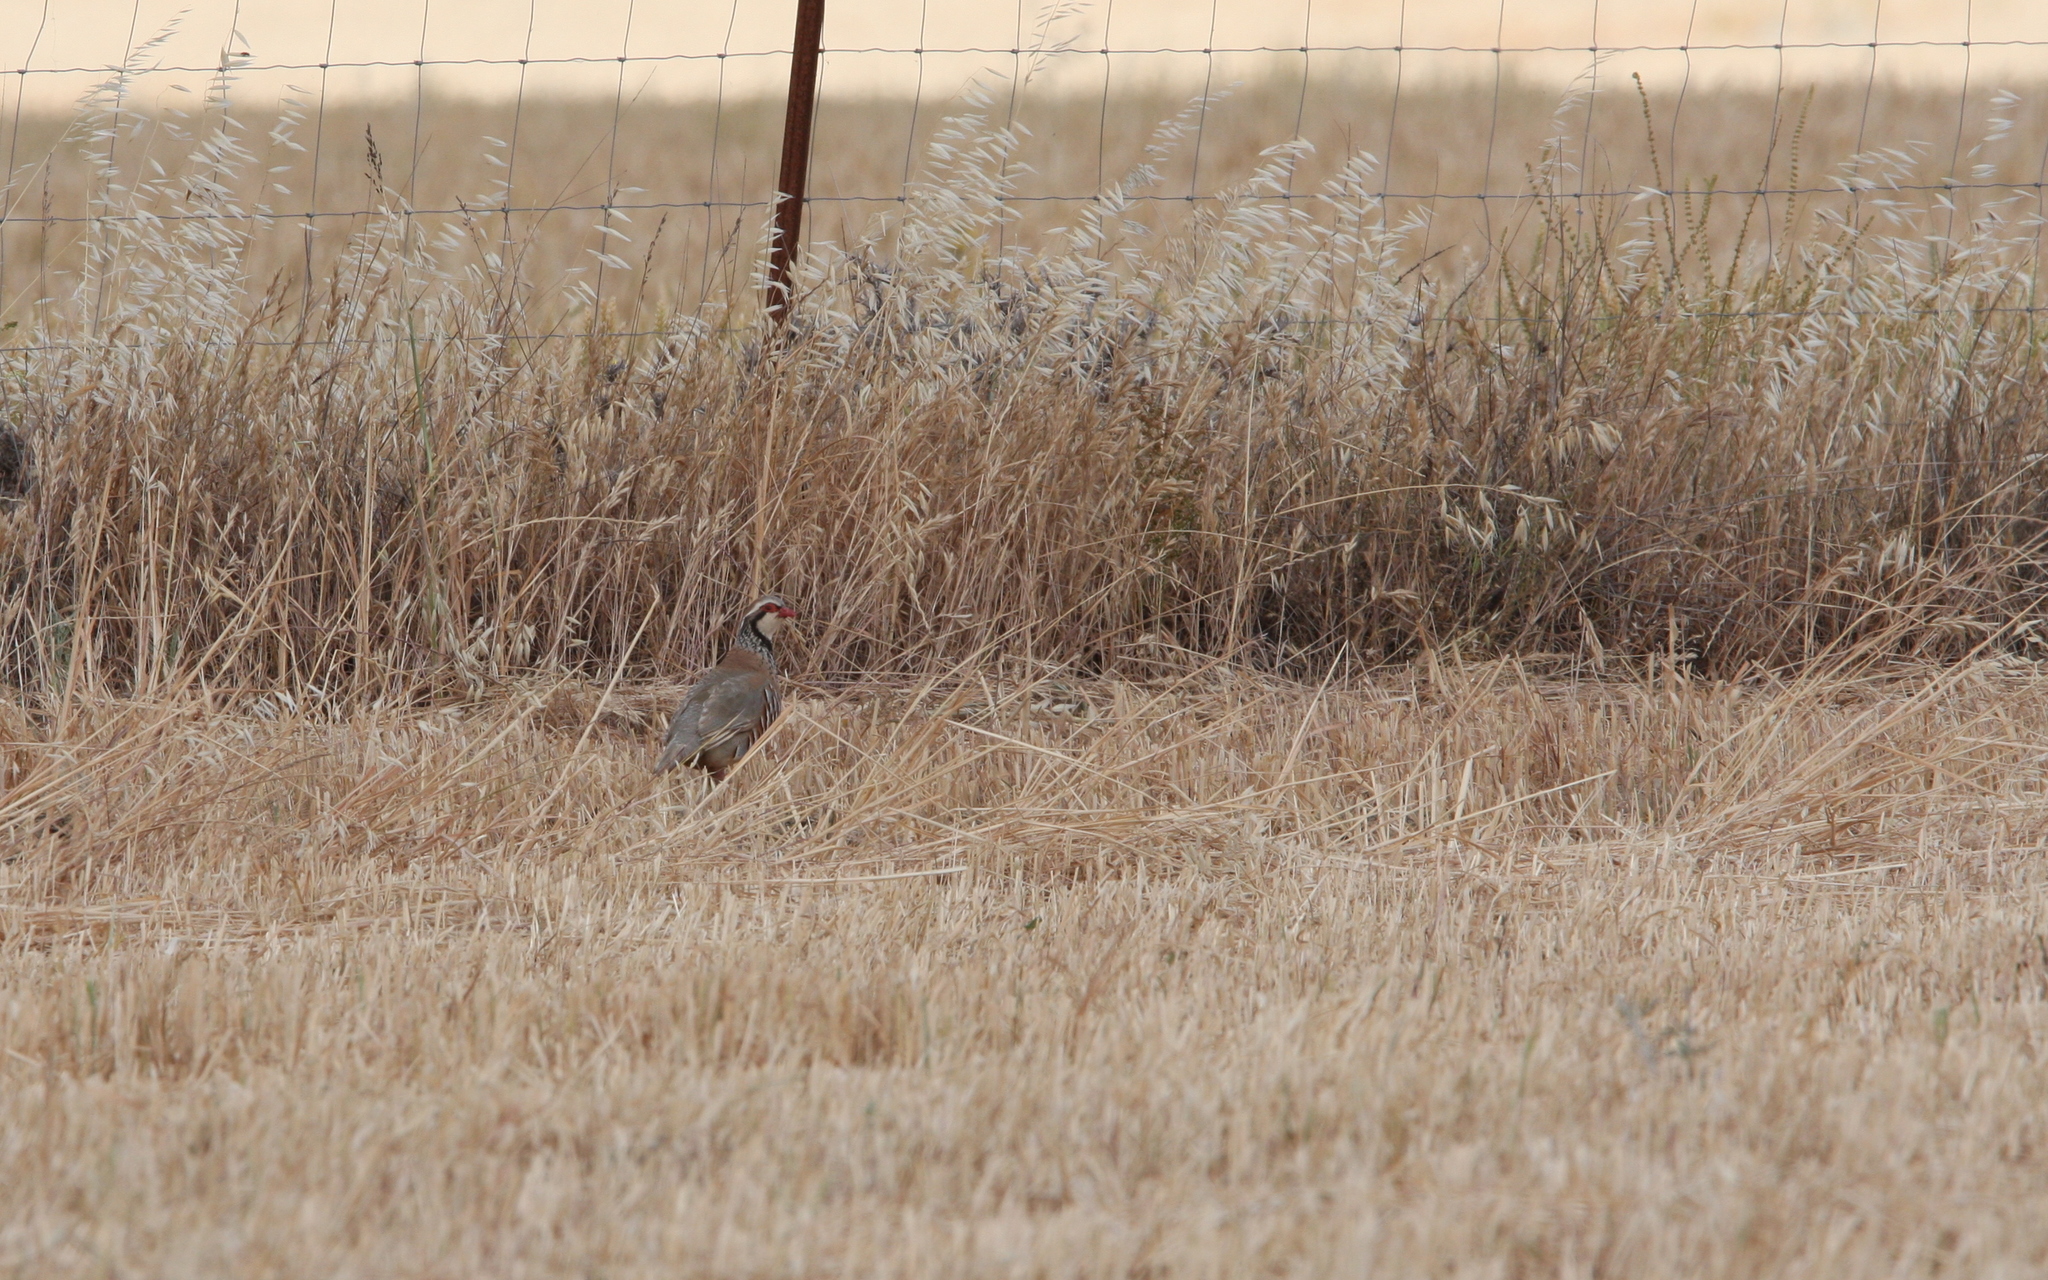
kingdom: Animalia
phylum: Chordata
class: Aves
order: Galliformes
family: Phasianidae
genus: Alectoris
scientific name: Alectoris rufa
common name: Red-legged partridge
